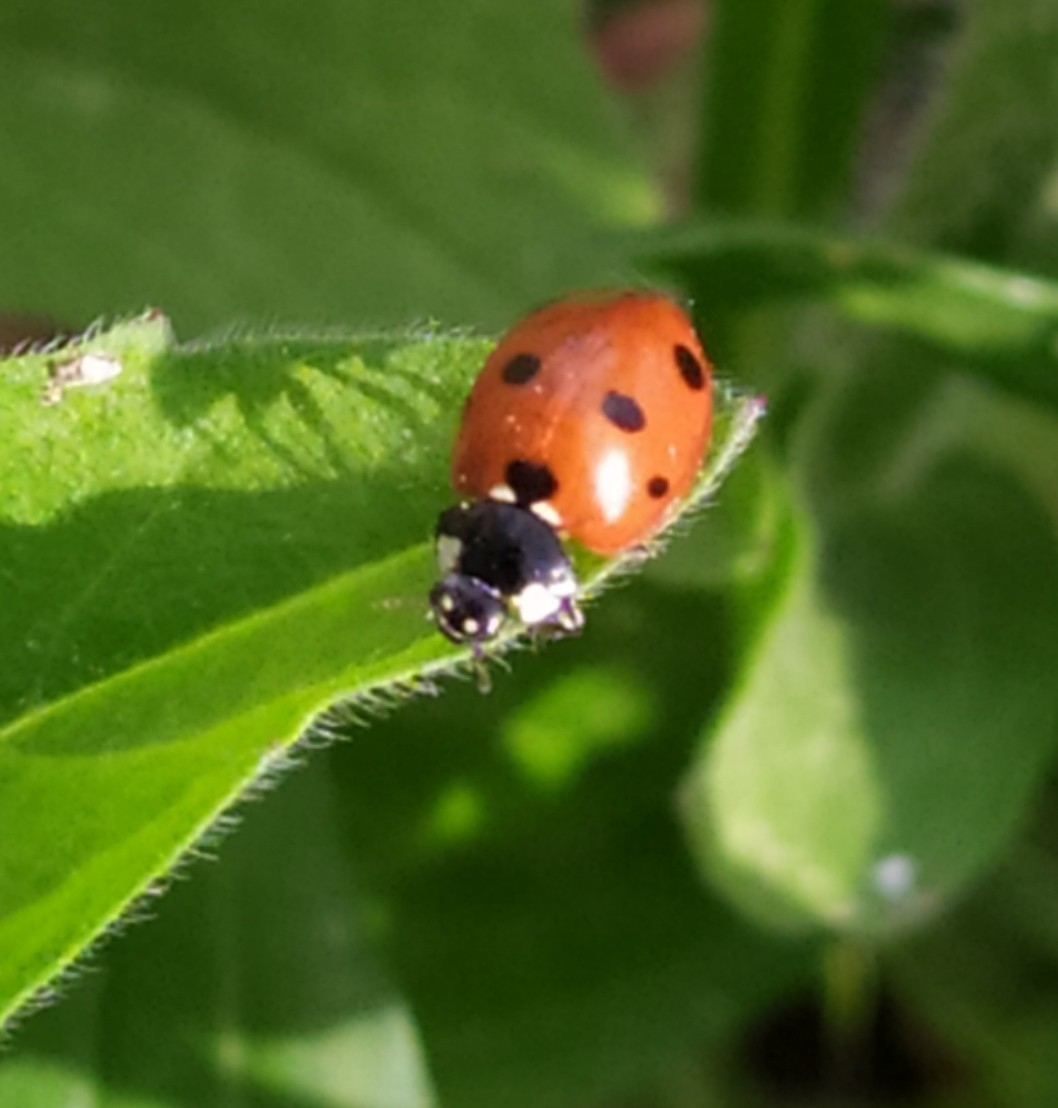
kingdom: Animalia
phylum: Arthropoda
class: Insecta
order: Coleoptera
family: Coccinellidae
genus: Coccinella
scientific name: Coccinella septempunctata
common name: Sevenspotted lady beetle
